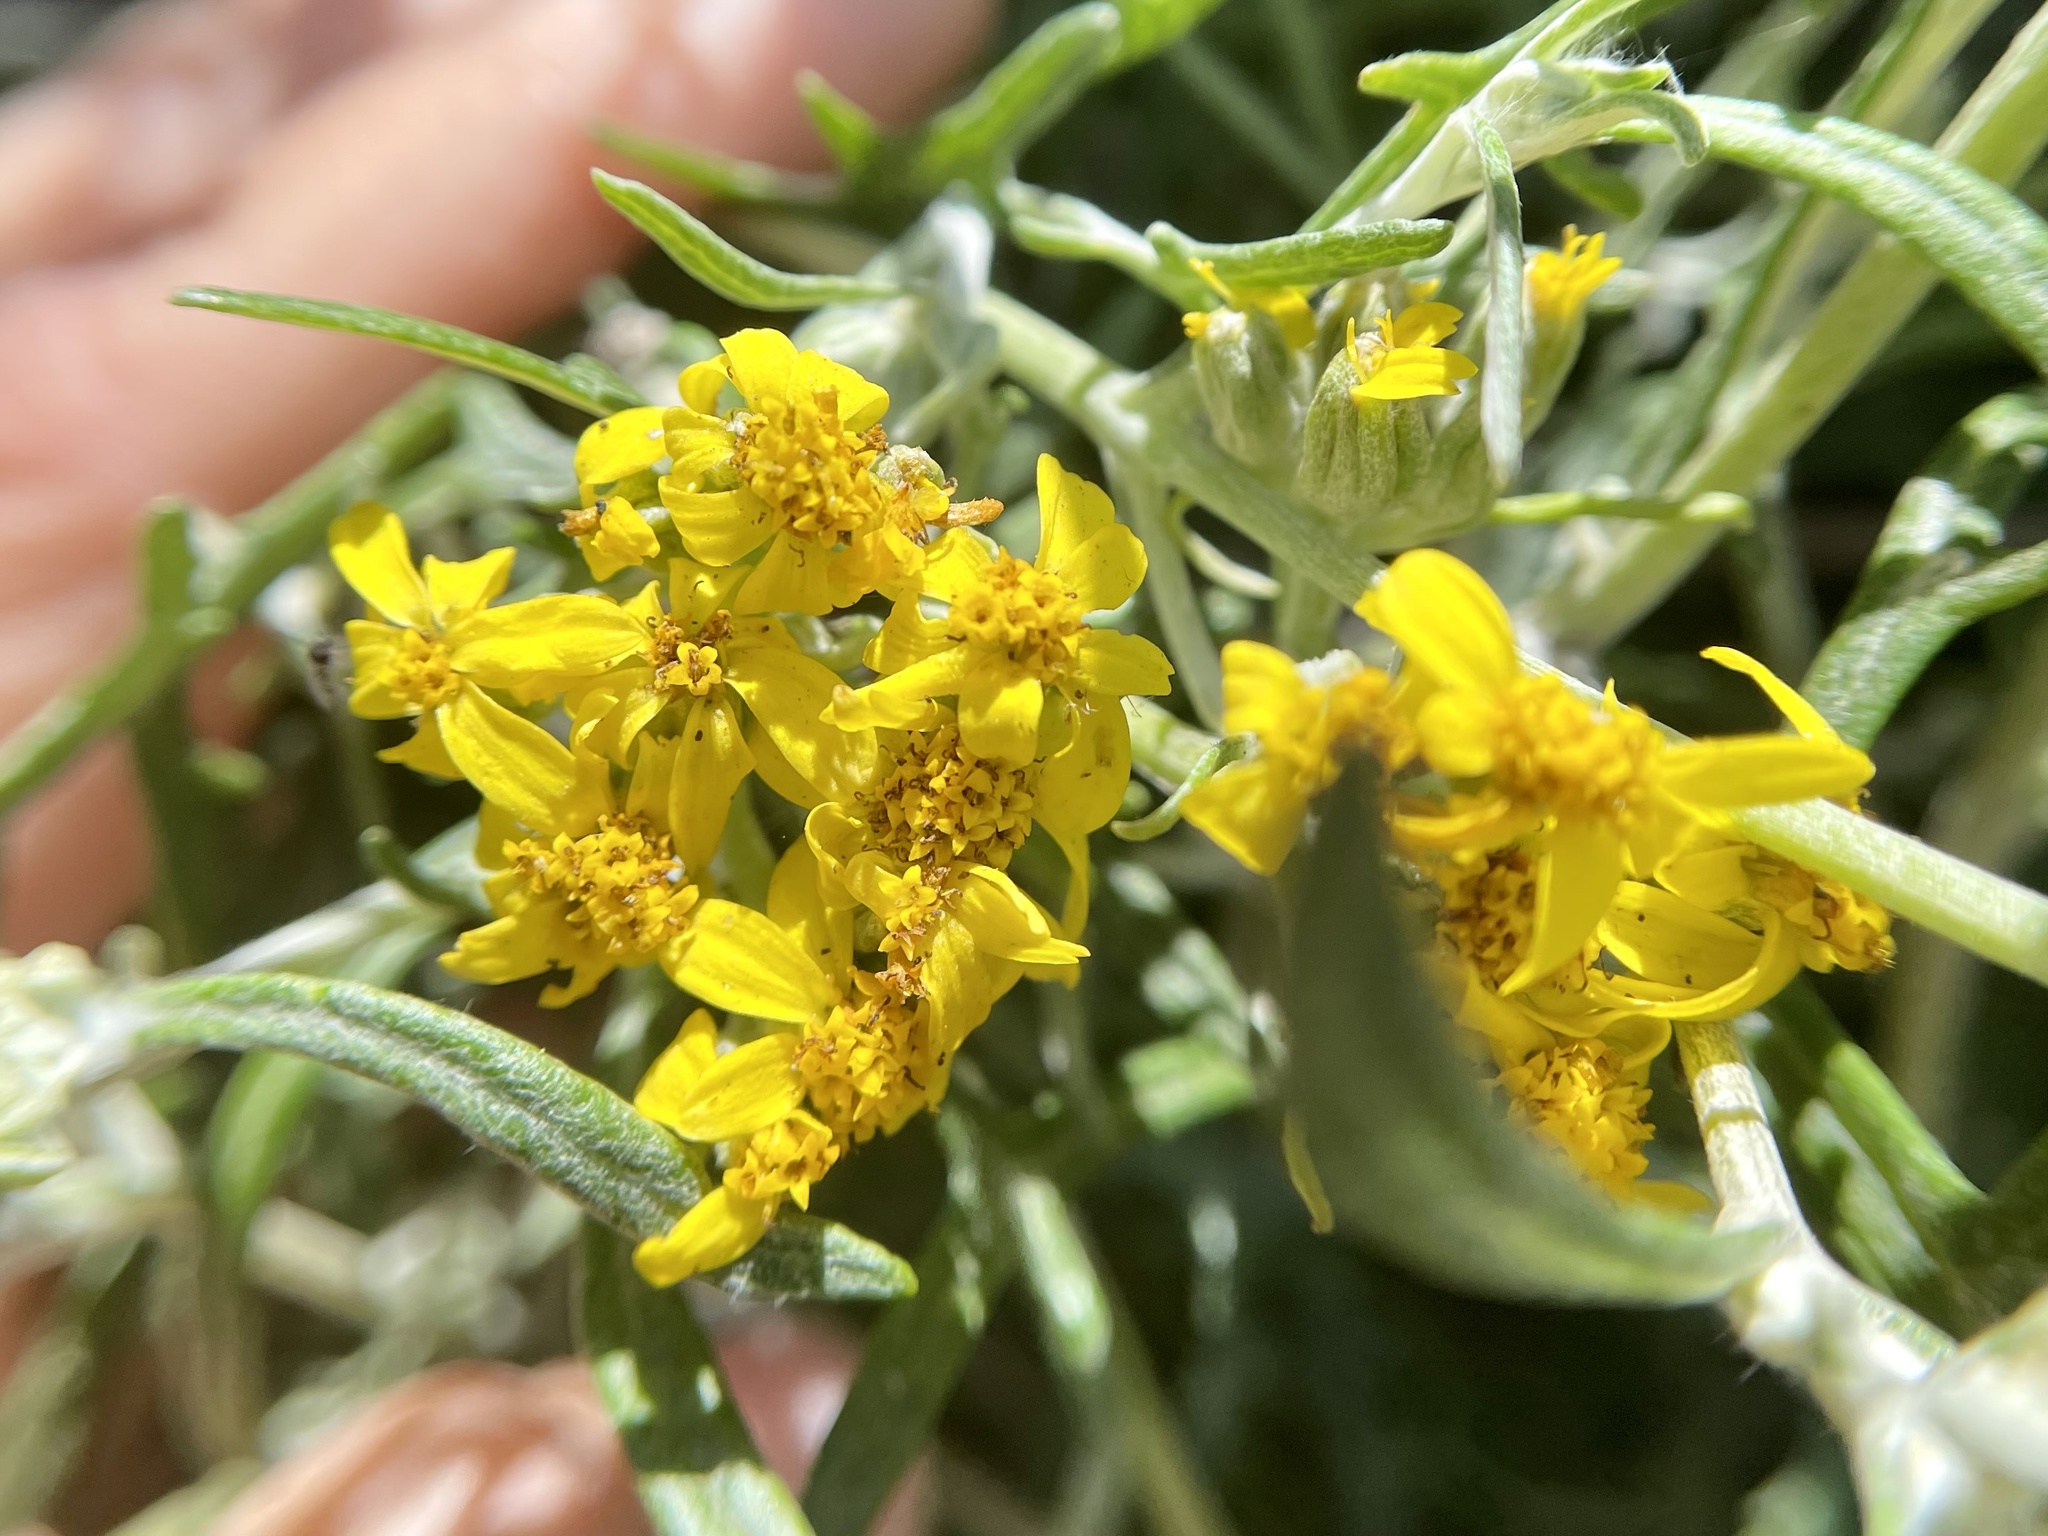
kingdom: Plantae
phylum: Tracheophyta
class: Magnoliopsida
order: Asterales
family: Asteraceae
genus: Eriophyllum
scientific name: Eriophyllum staechadifolium
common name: Lizardtail
